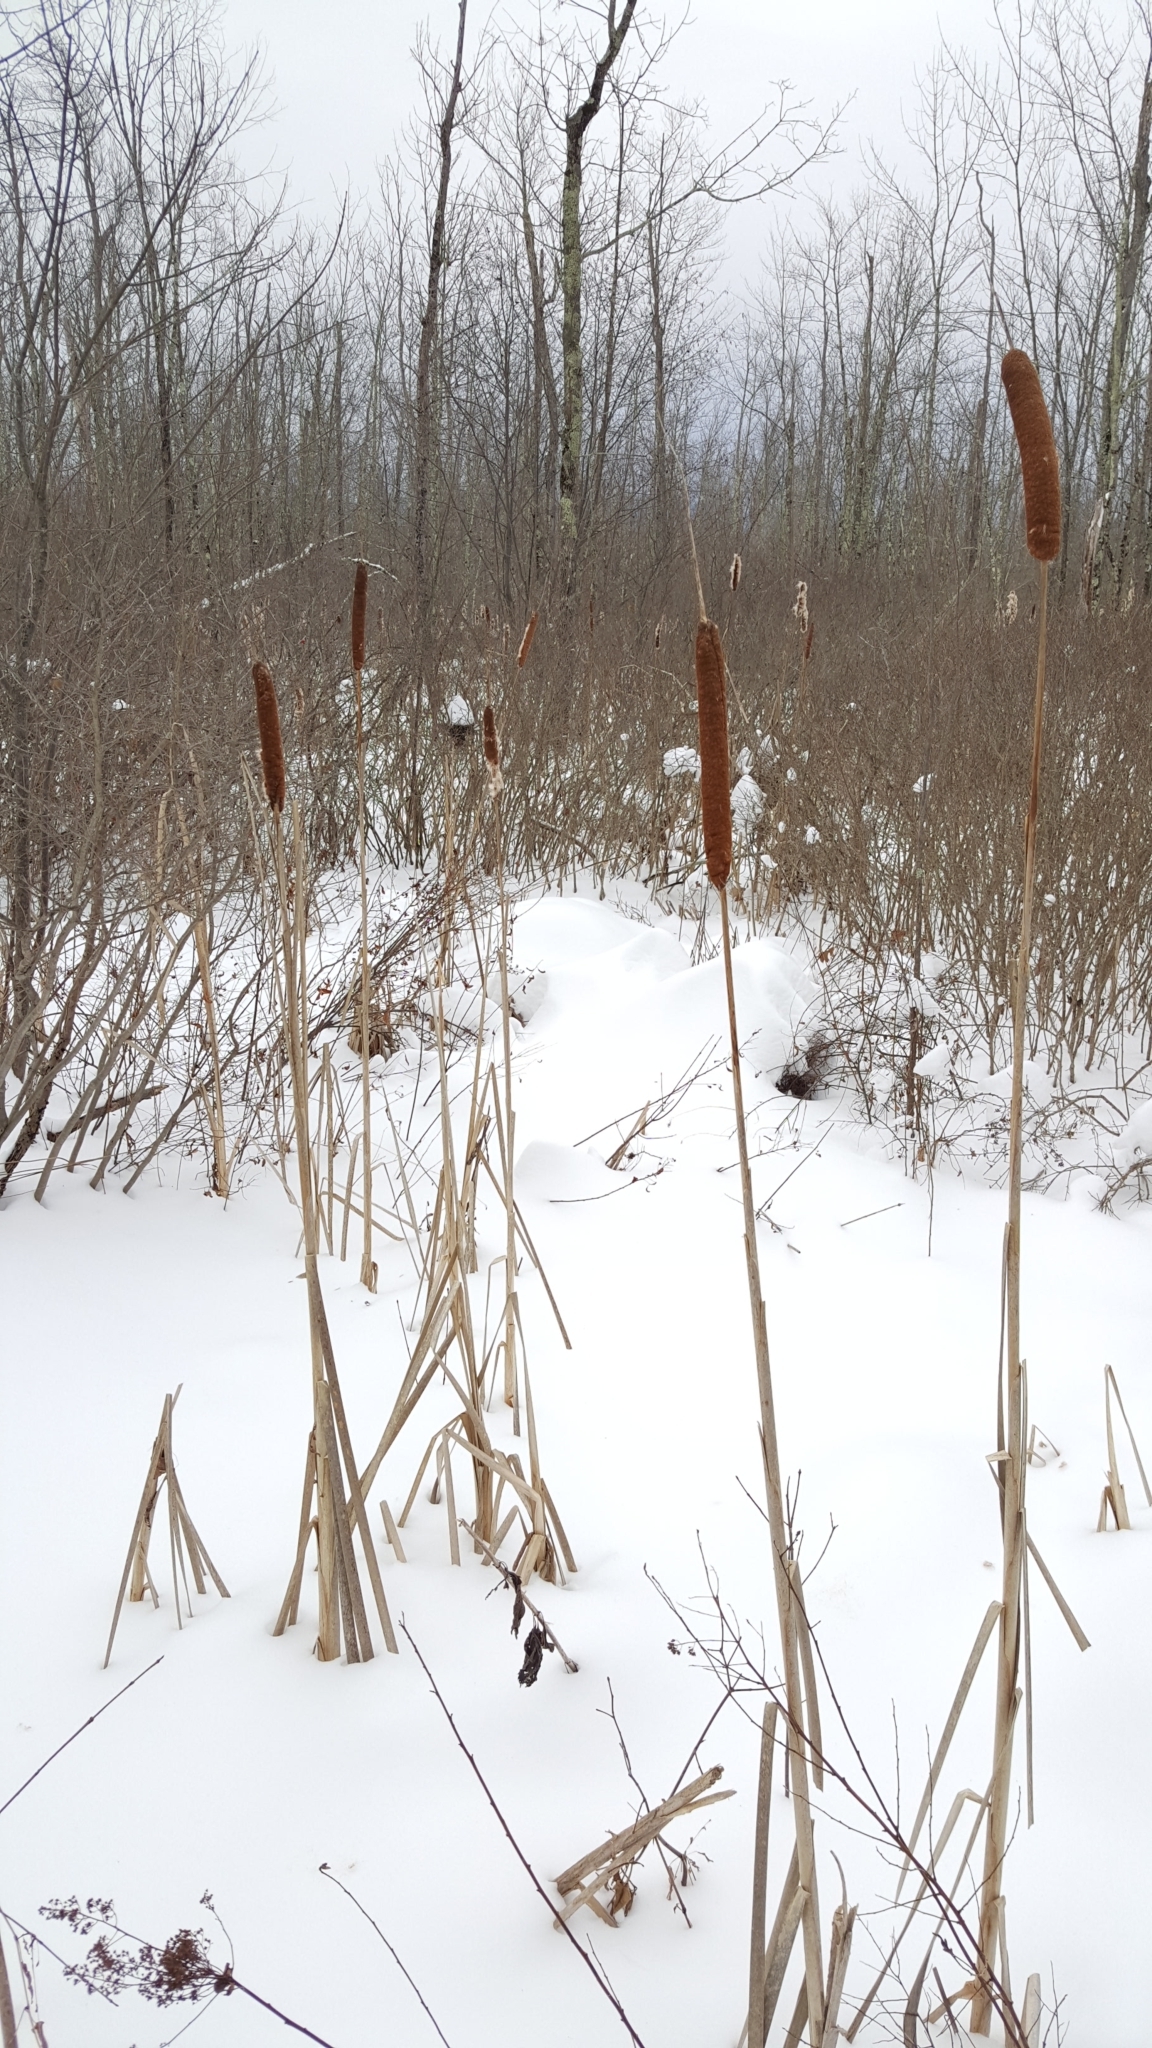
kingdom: Plantae
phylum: Tracheophyta
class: Liliopsida
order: Poales
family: Typhaceae
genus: Typha
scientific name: Typha latifolia
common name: Broadleaf cattail
